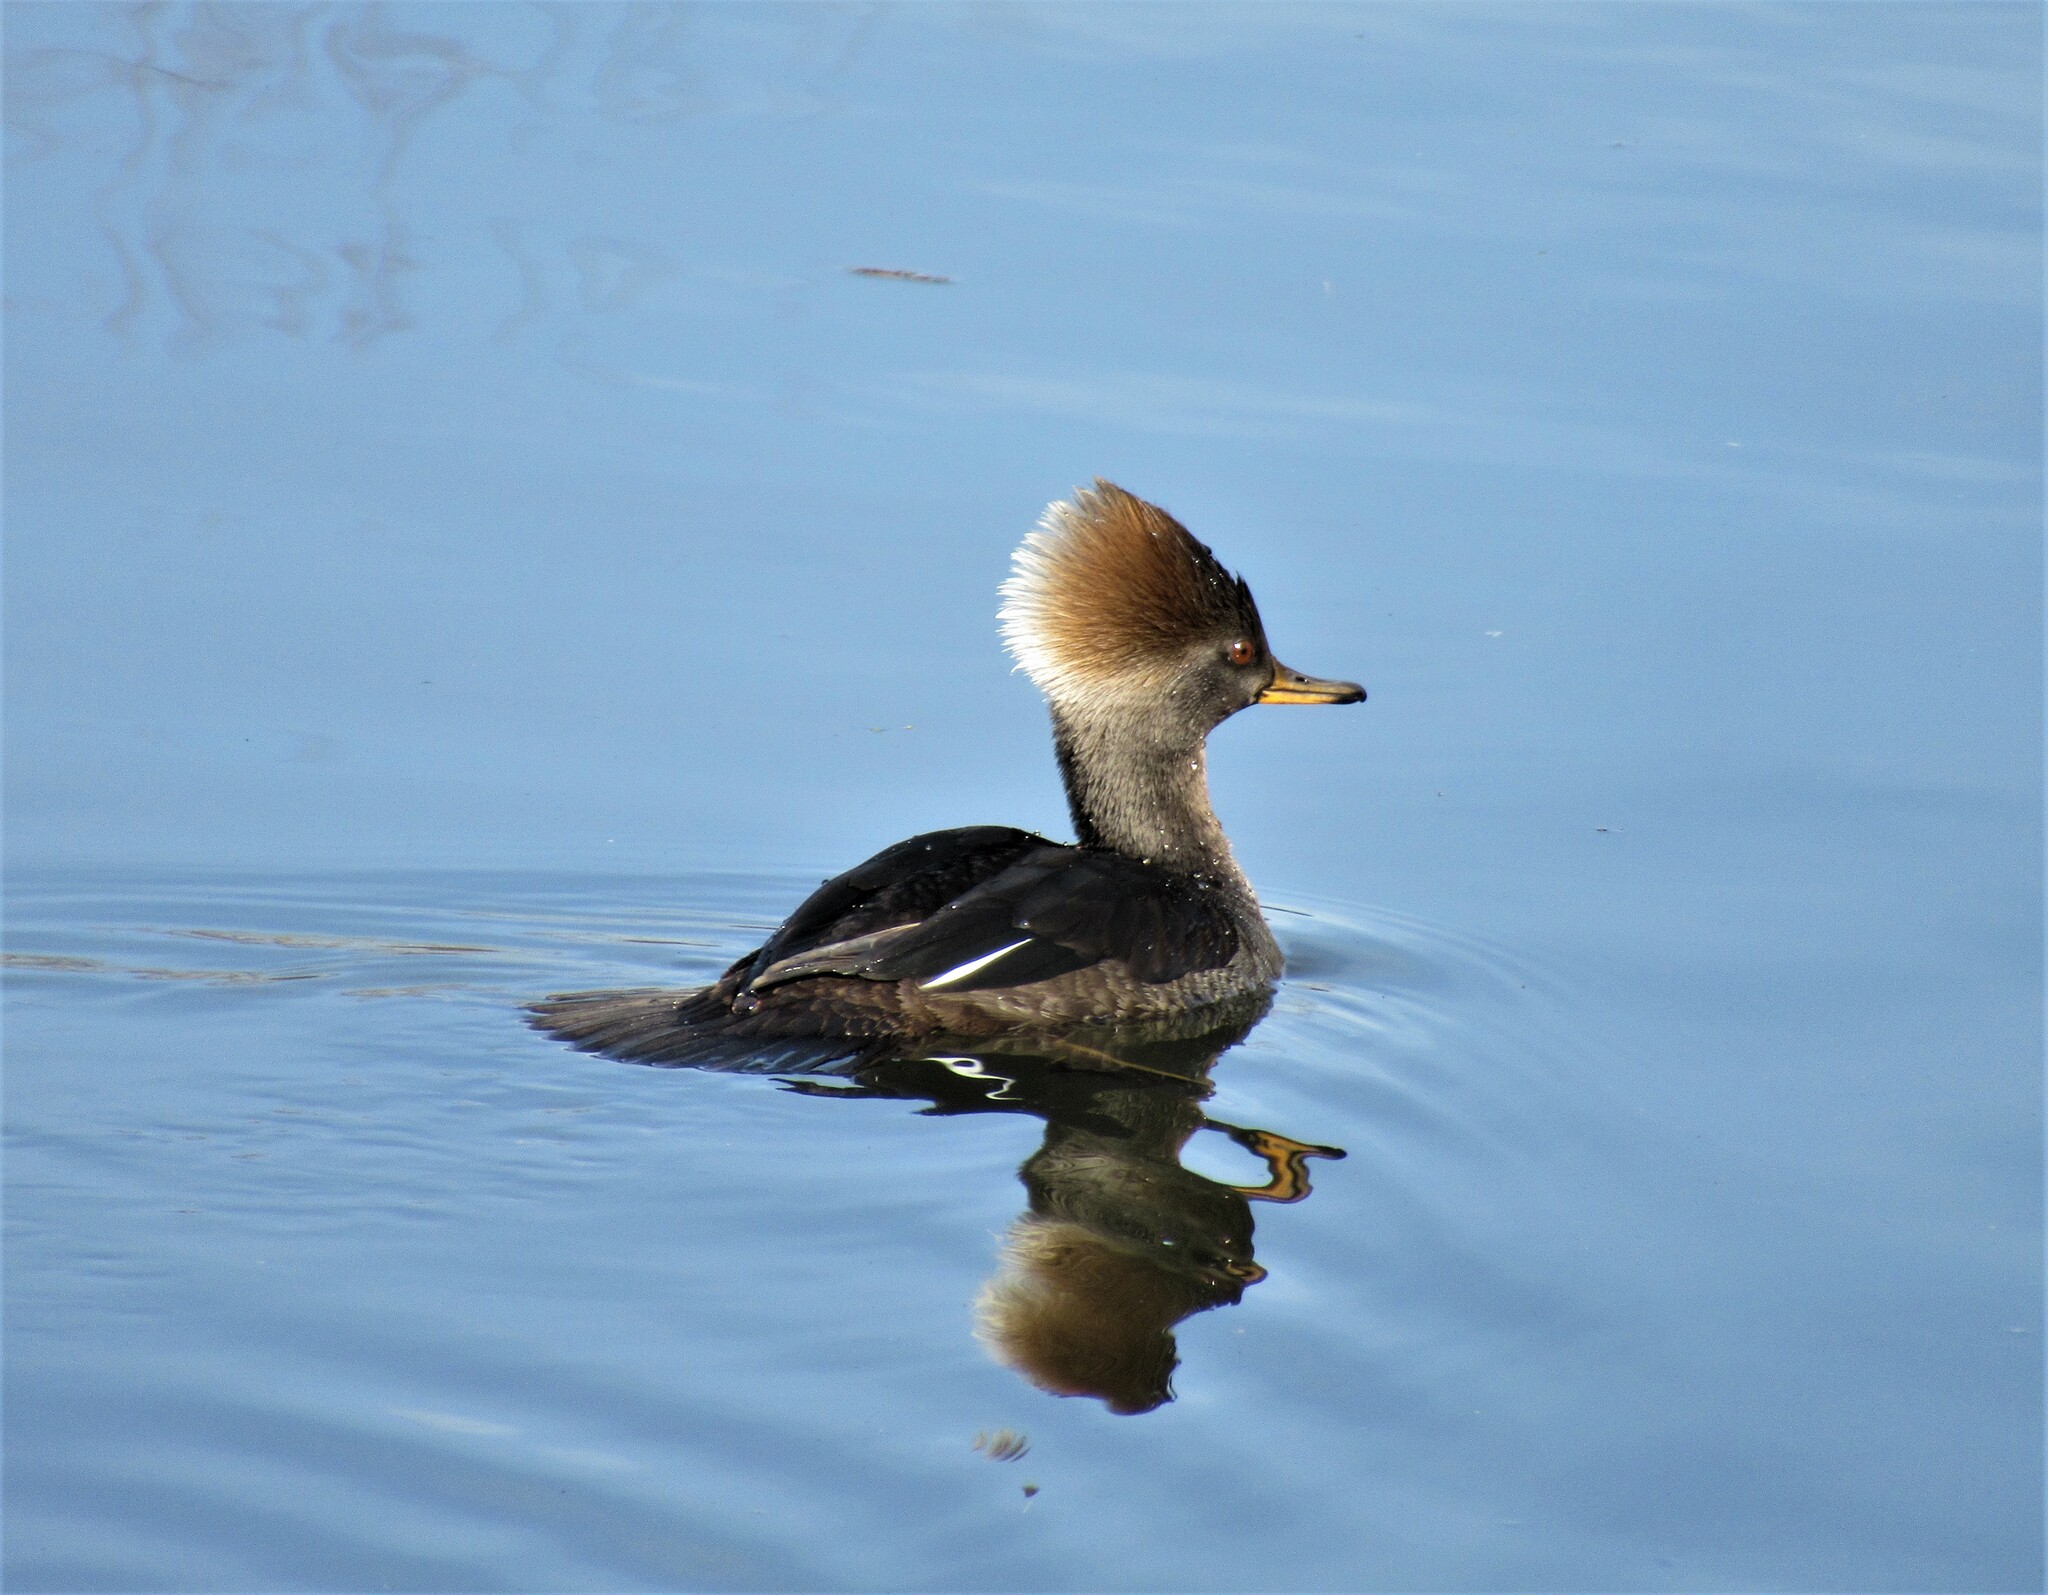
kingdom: Animalia
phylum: Chordata
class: Aves
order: Anseriformes
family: Anatidae
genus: Lophodytes
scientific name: Lophodytes cucullatus
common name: Hooded merganser
